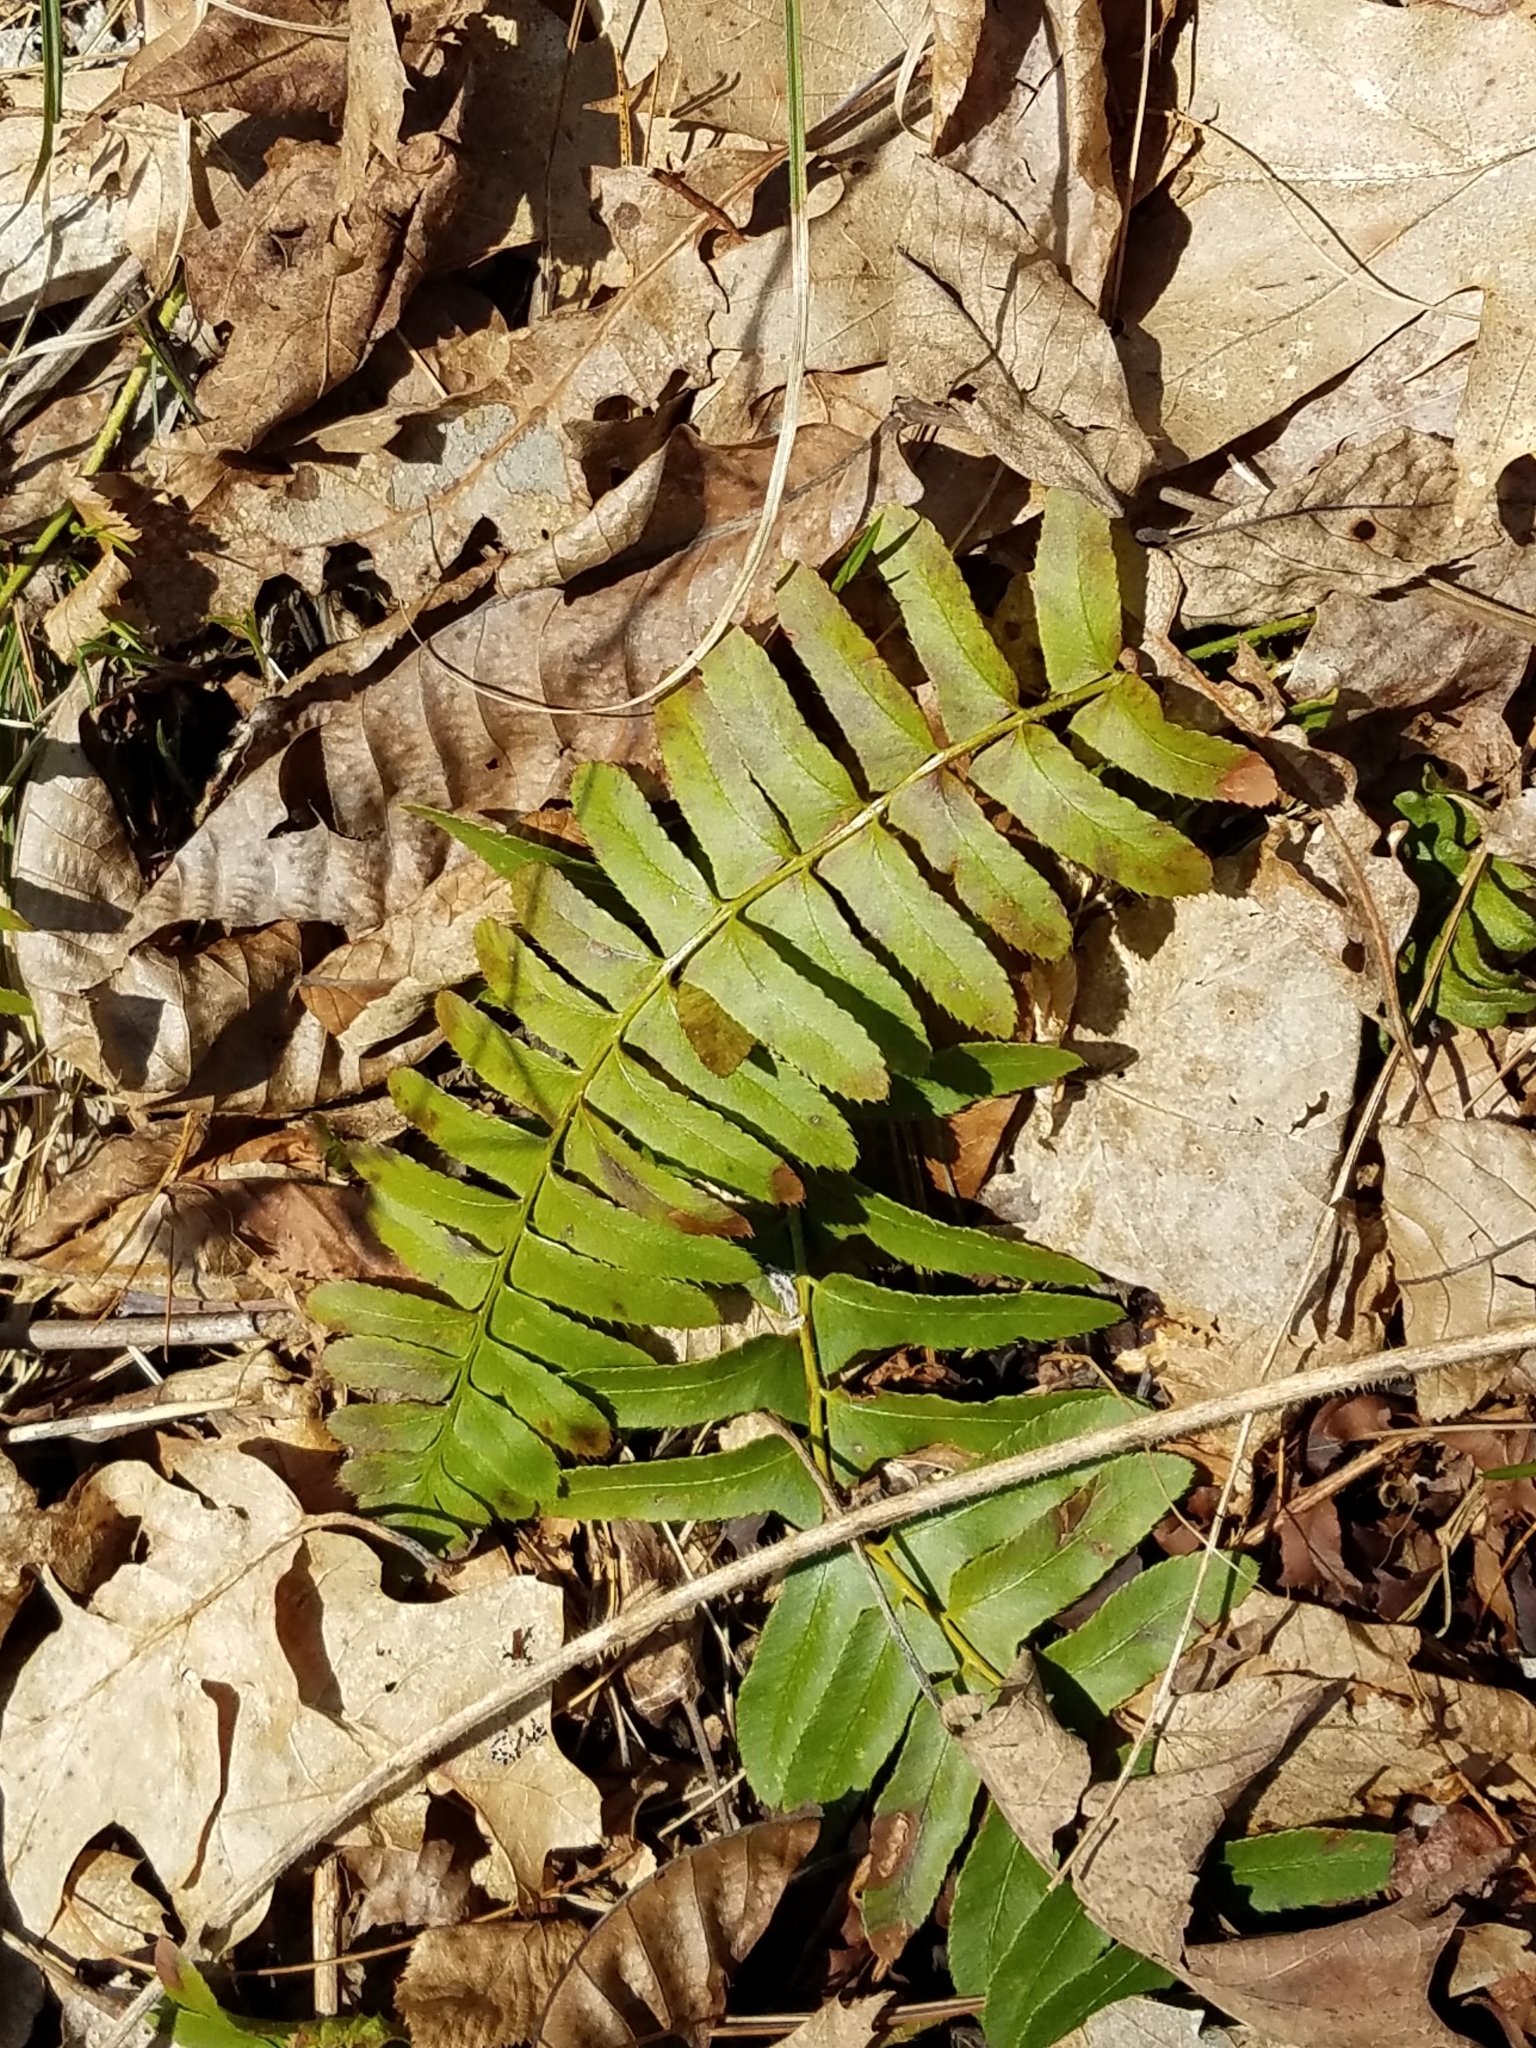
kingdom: Plantae
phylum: Tracheophyta
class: Polypodiopsida
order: Polypodiales
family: Dryopteridaceae
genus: Polystichum
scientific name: Polystichum acrostichoides
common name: Christmas fern
